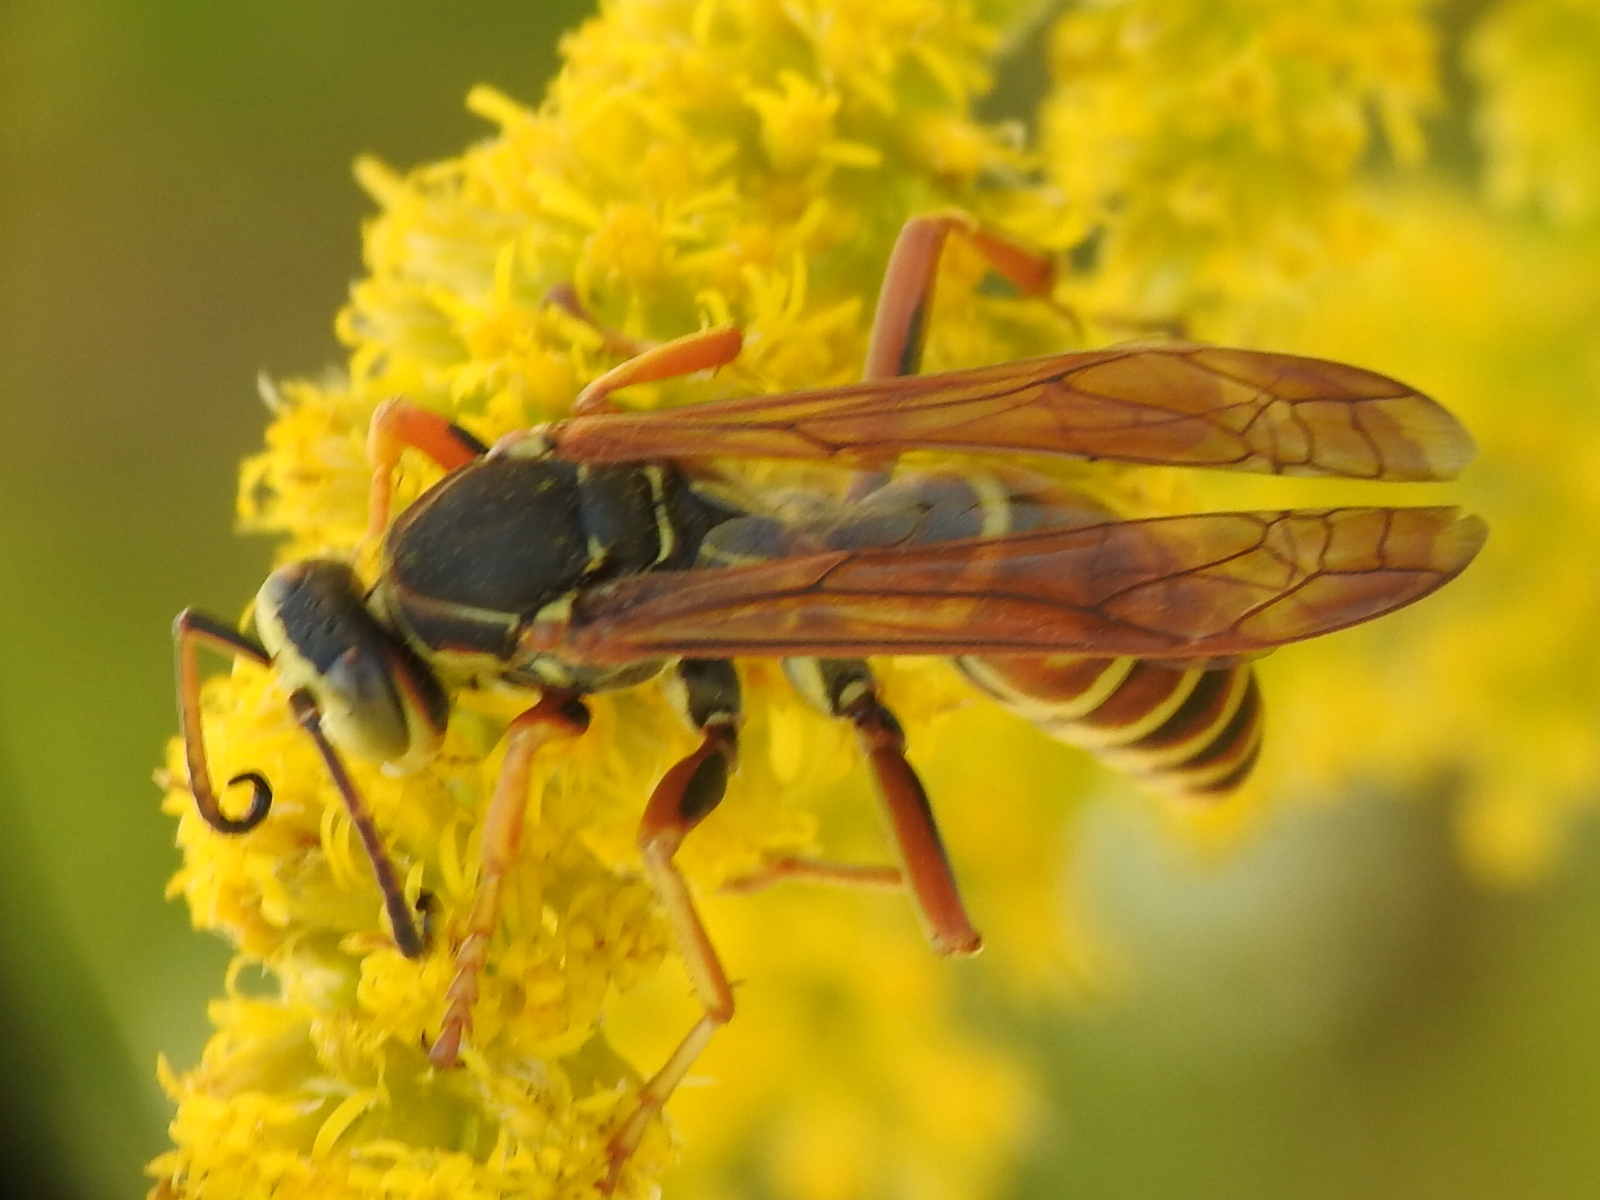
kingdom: Animalia
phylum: Arthropoda
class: Insecta
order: Hymenoptera
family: Eumenidae
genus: Polistes
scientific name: Polistes fuscatus
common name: Dark paper wasp
